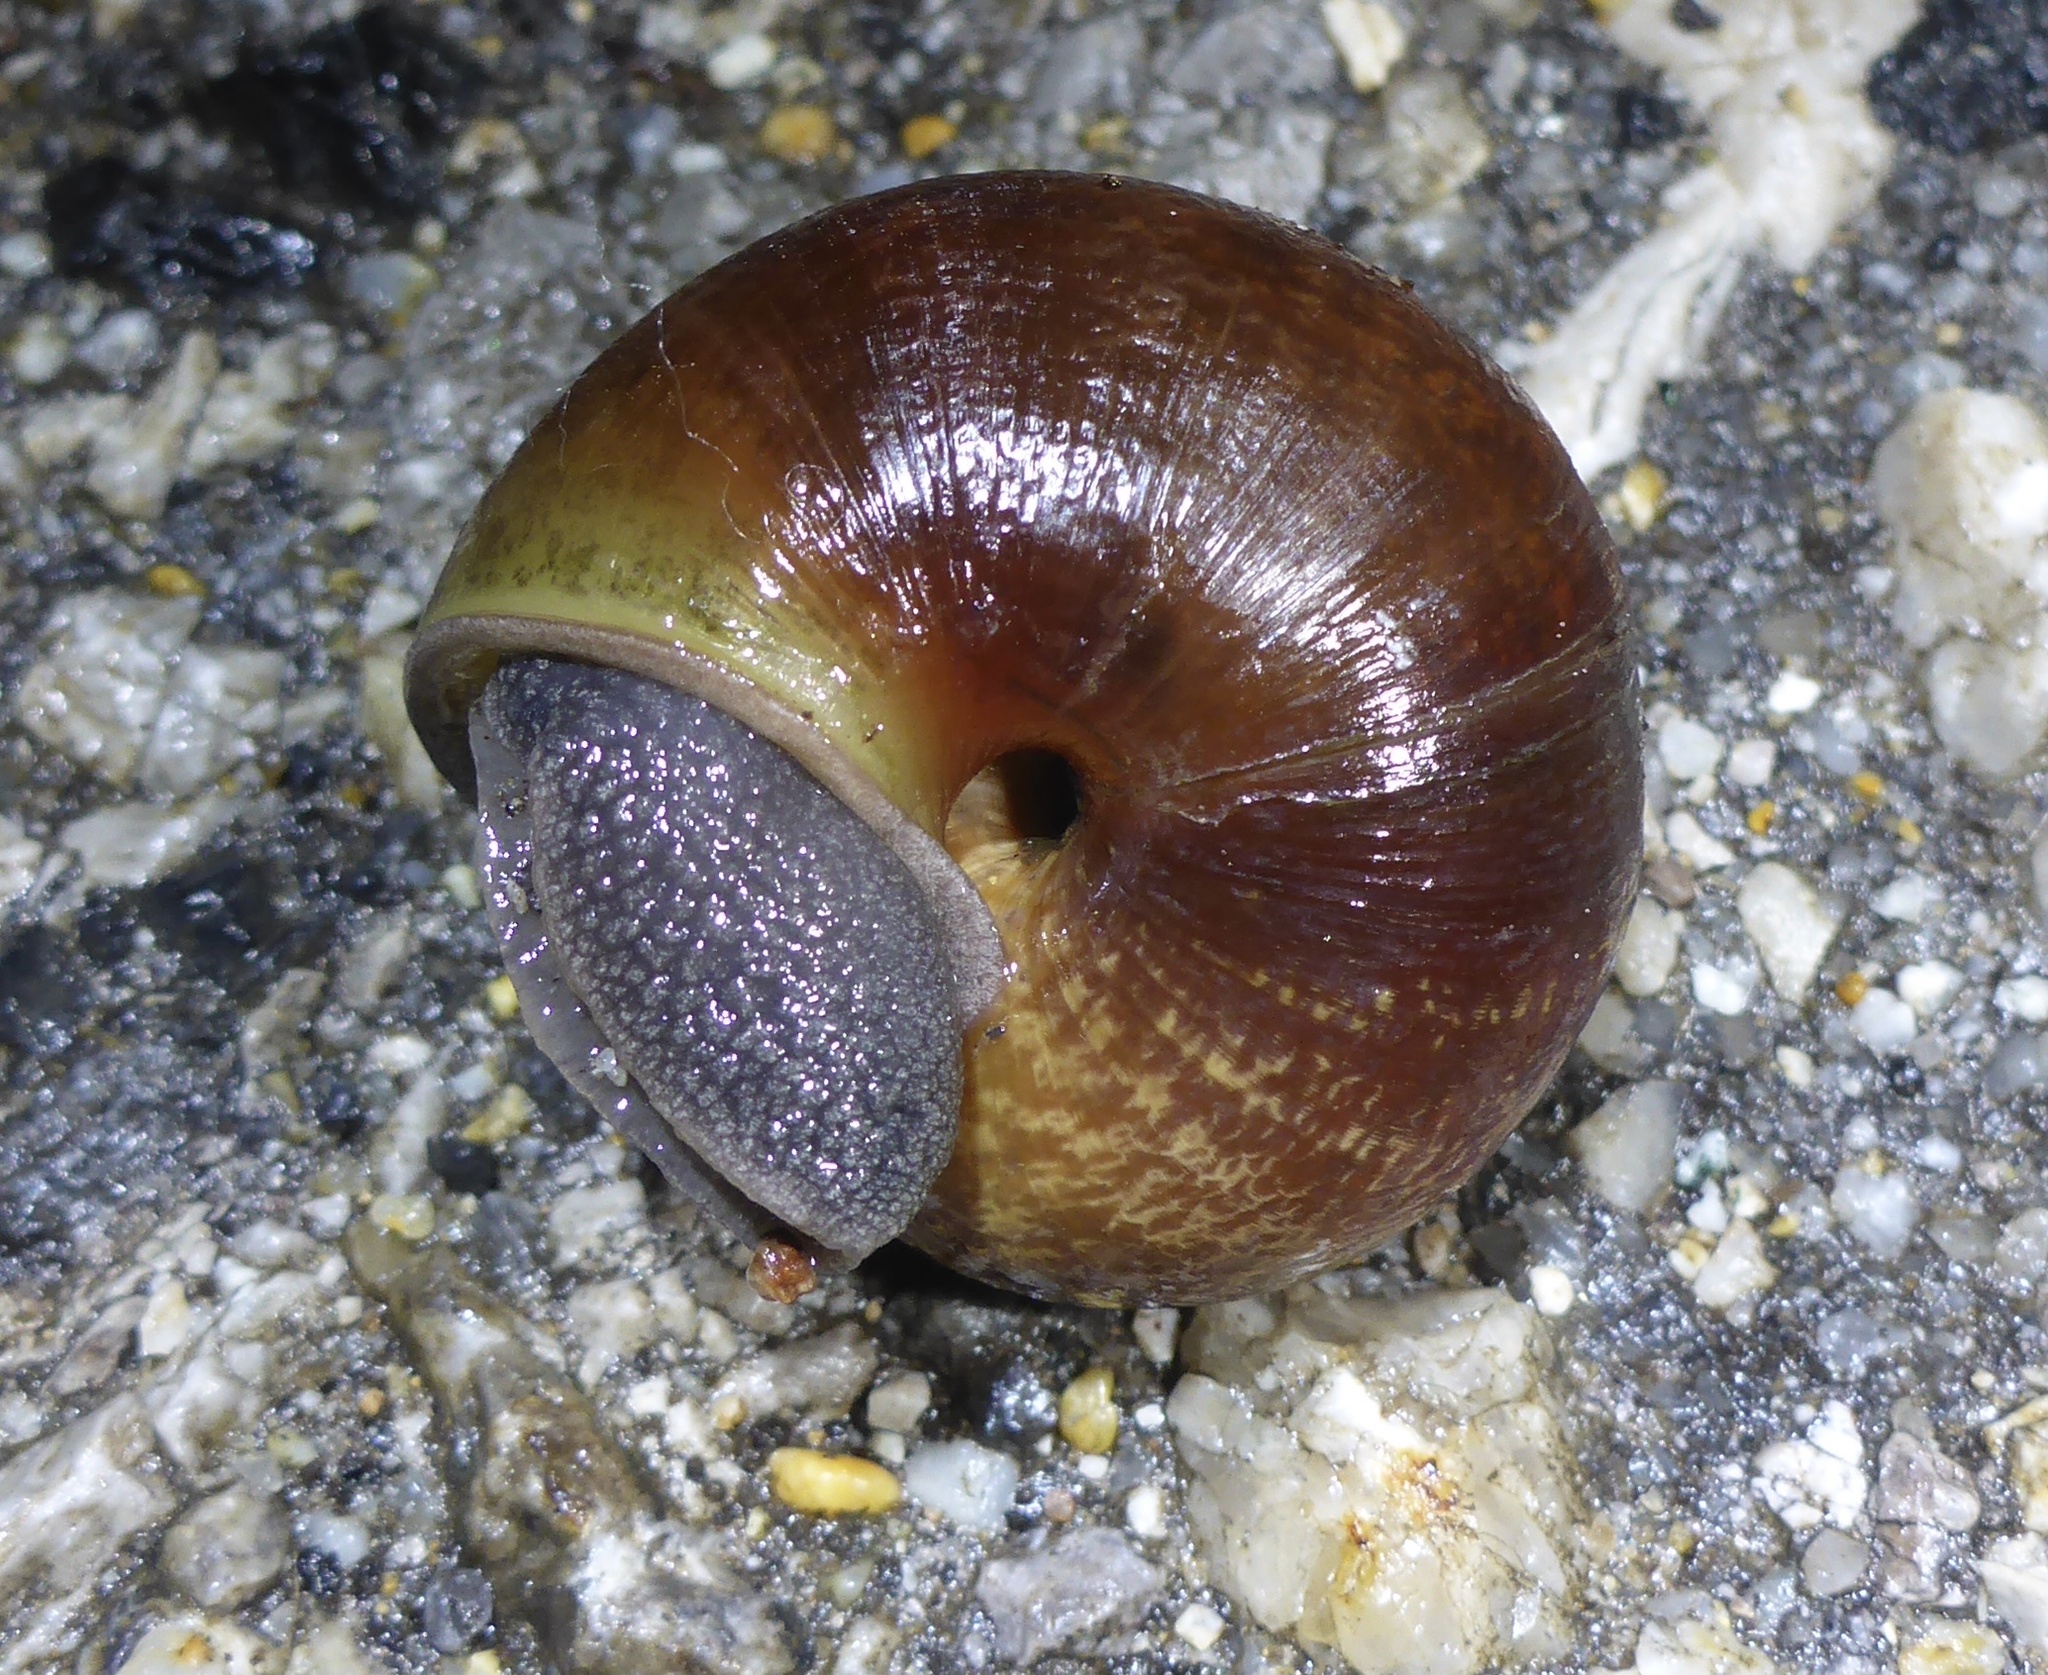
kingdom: Animalia
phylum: Mollusca
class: Gastropoda
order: Stylommatophora
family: Xanthonychidae
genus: Helminthoglypta
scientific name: Helminthoglypta arrosa
